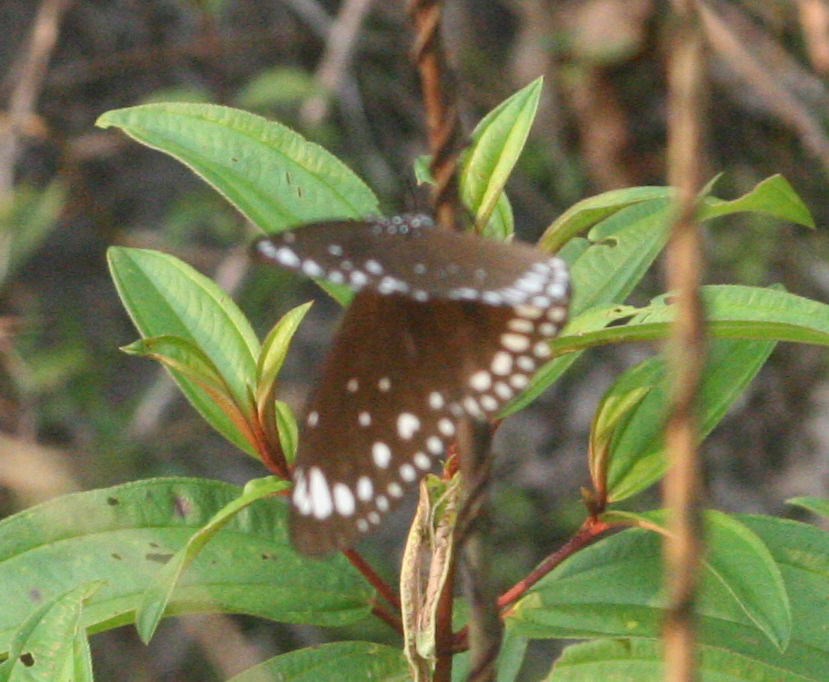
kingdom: Animalia
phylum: Arthropoda
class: Insecta
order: Lepidoptera
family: Nymphalidae
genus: Euploea
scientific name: Euploea crameri
